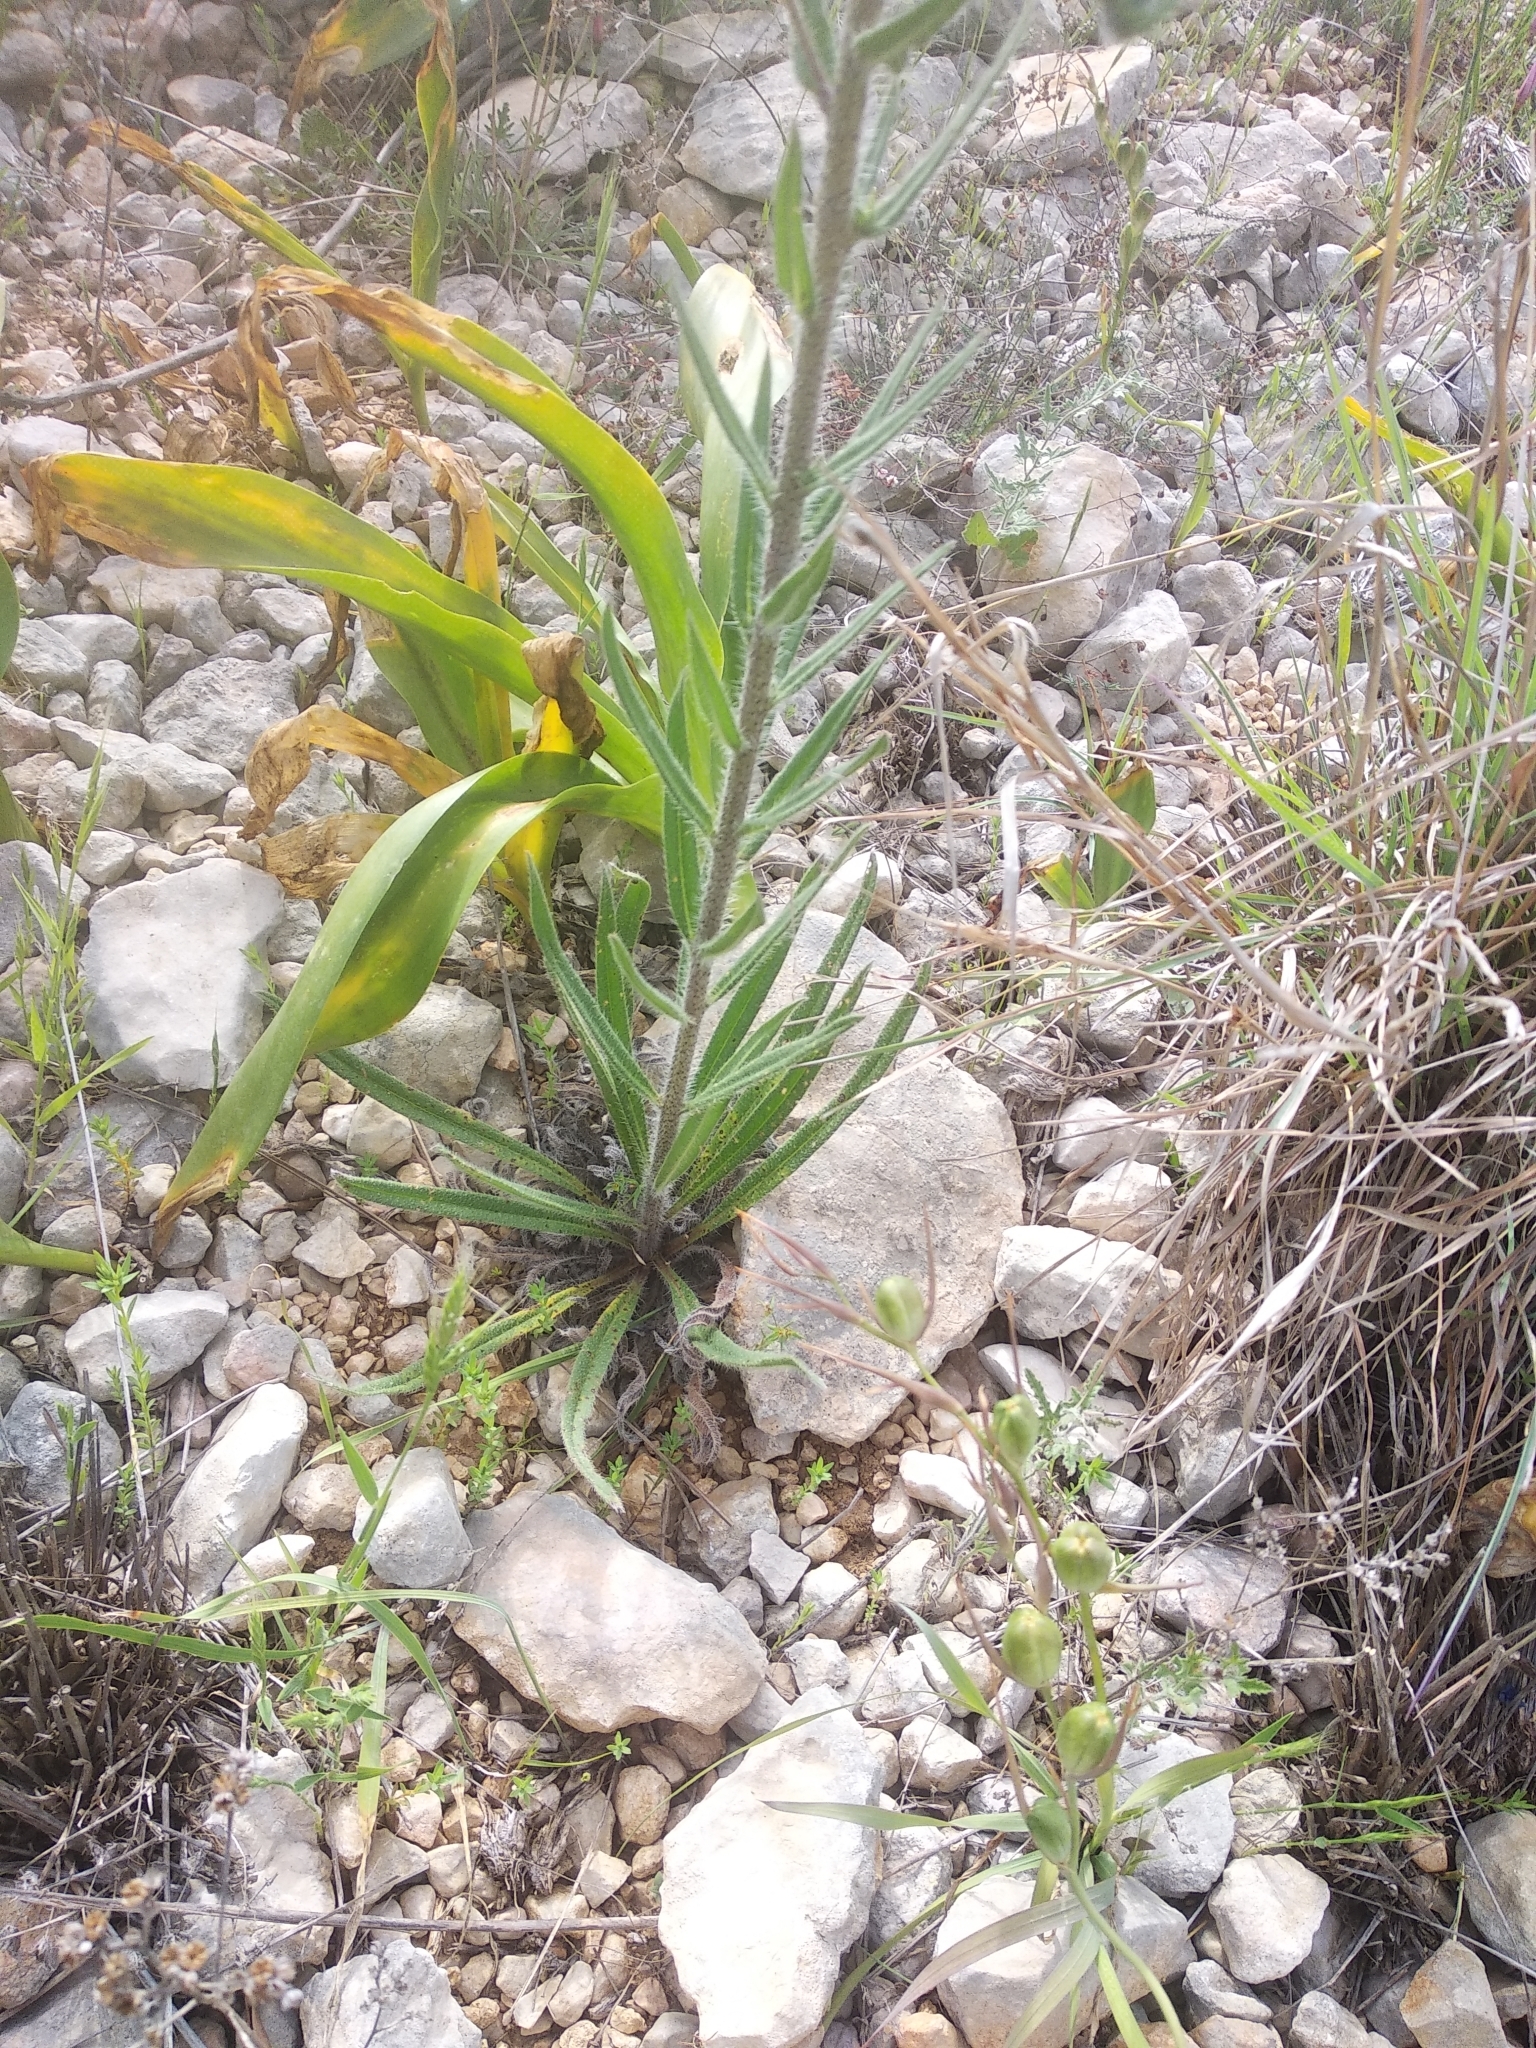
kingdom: Plantae
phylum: Tracheophyta
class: Magnoliopsida
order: Boraginales
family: Boraginaceae
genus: Echium
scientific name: Echium vulgare
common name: Common viper's bugloss
